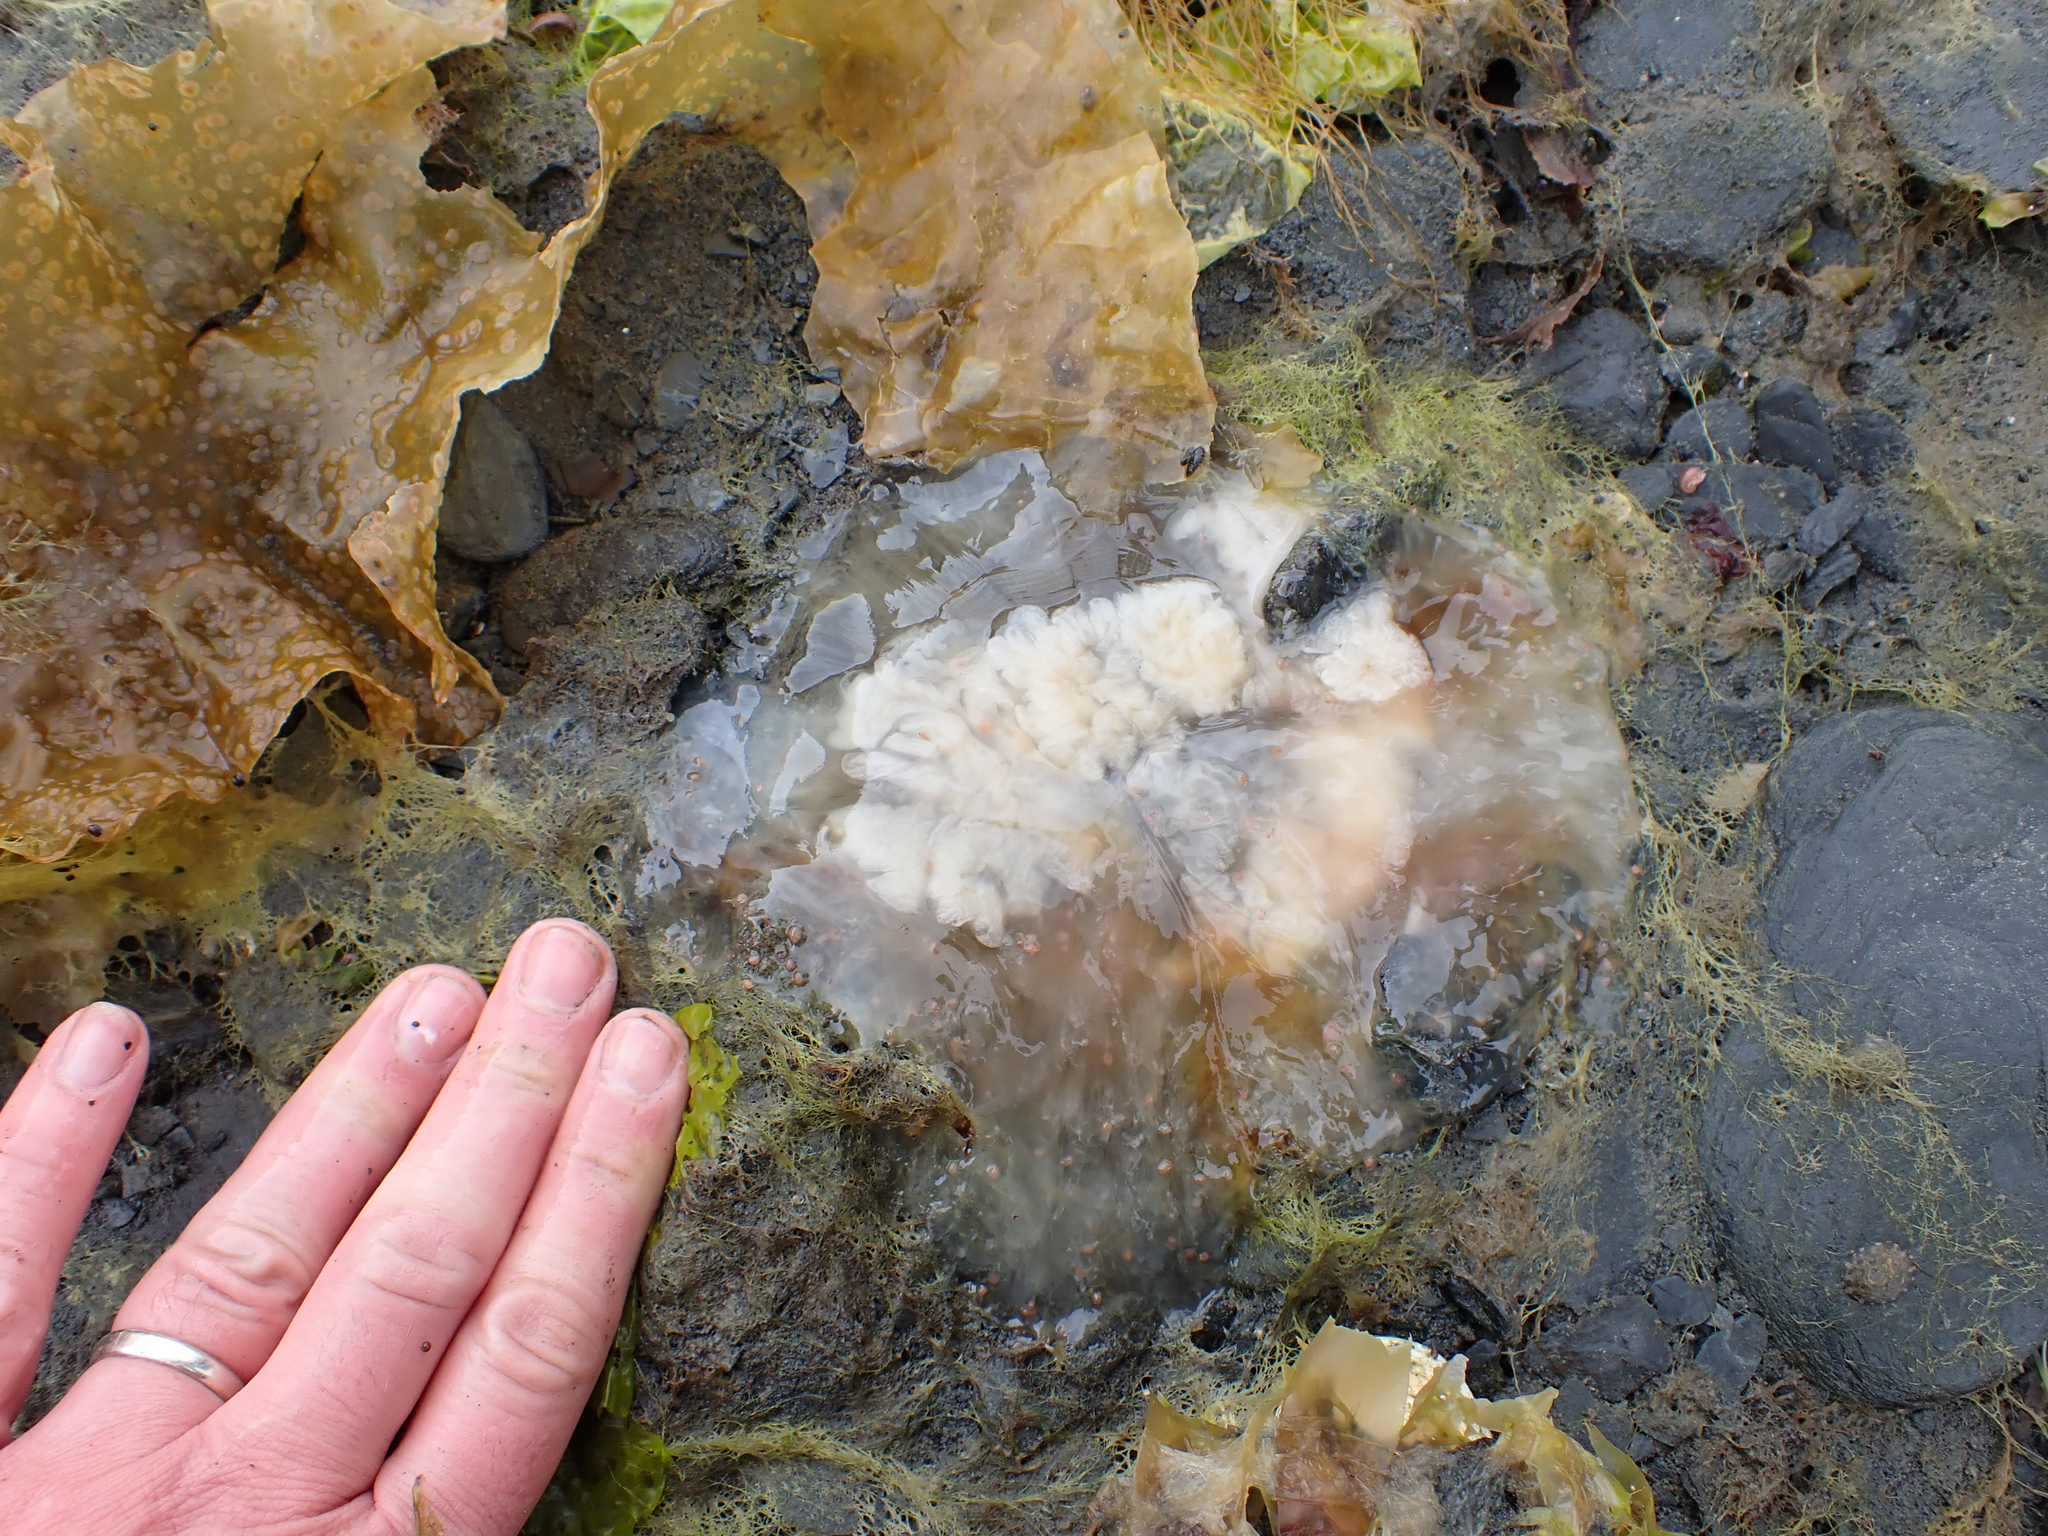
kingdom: Animalia
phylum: Cnidaria
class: Scyphozoa
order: Semaeostomeae
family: Cyaneidae
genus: Cyanea
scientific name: Cyanea ferruginea
